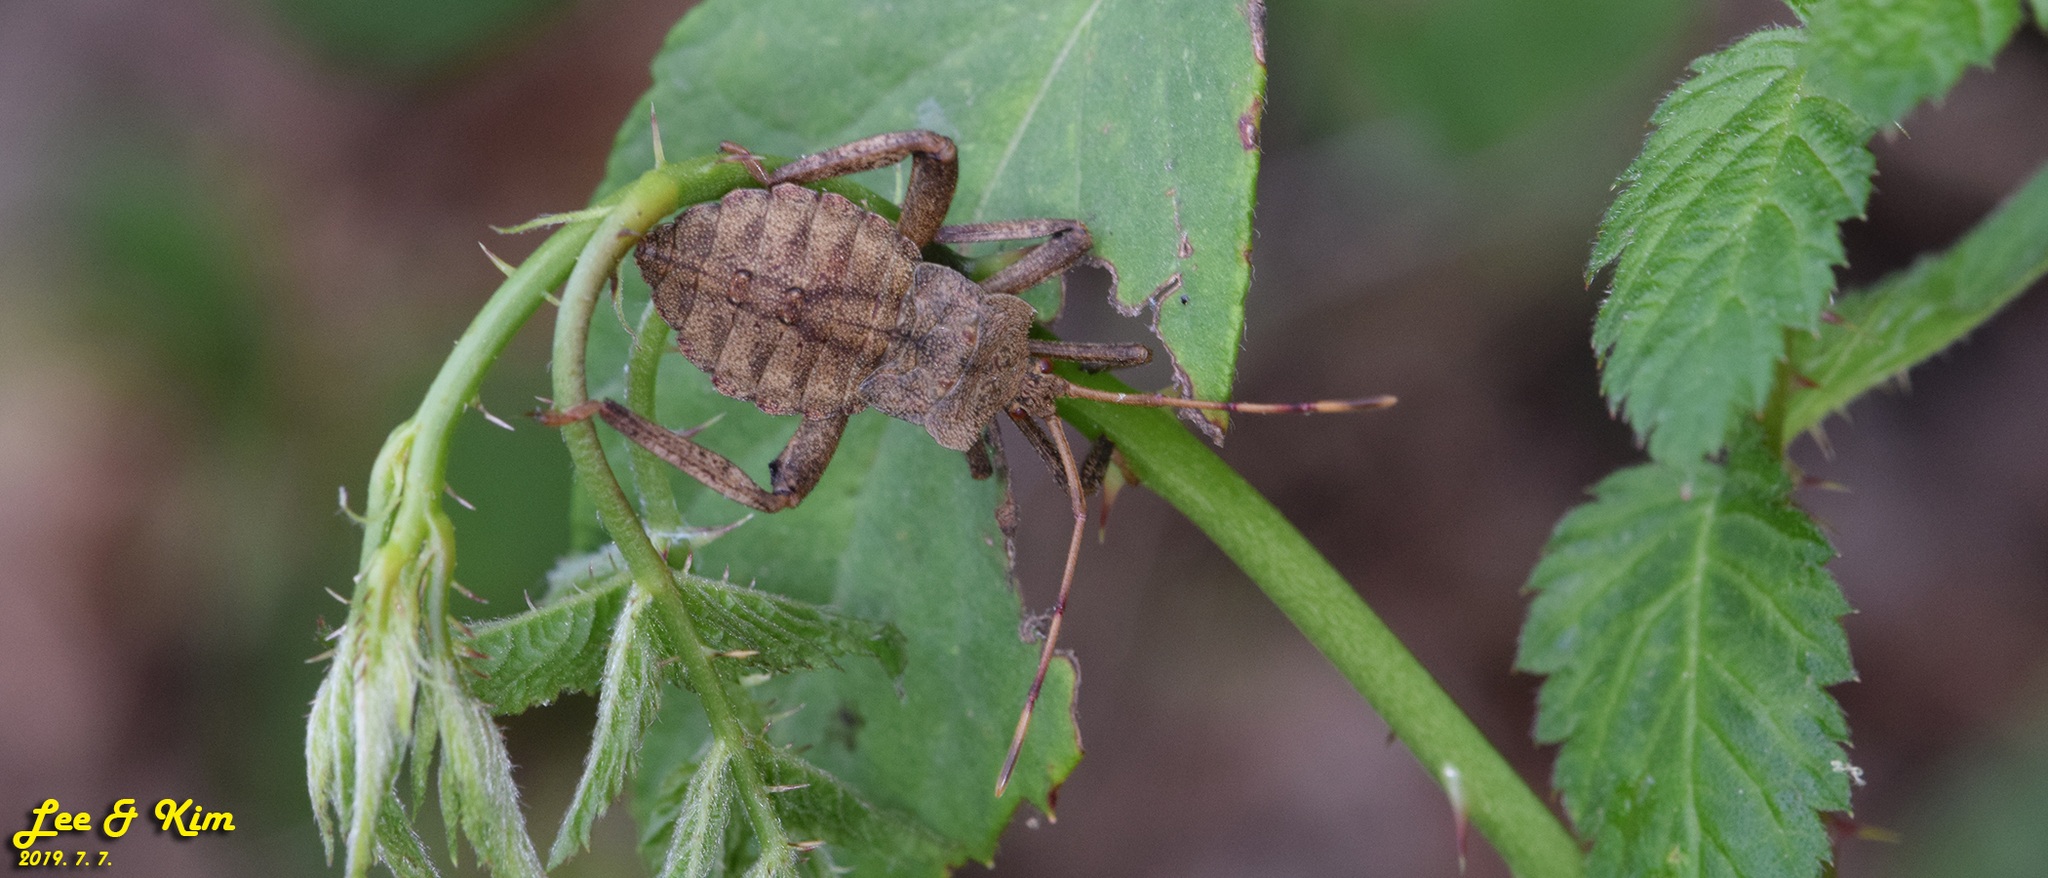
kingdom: Animalia
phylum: Arthropoda
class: Insecta
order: Hemiptera
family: Coreidae
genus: Molipteryx
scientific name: Molipteryx fuliginosa
